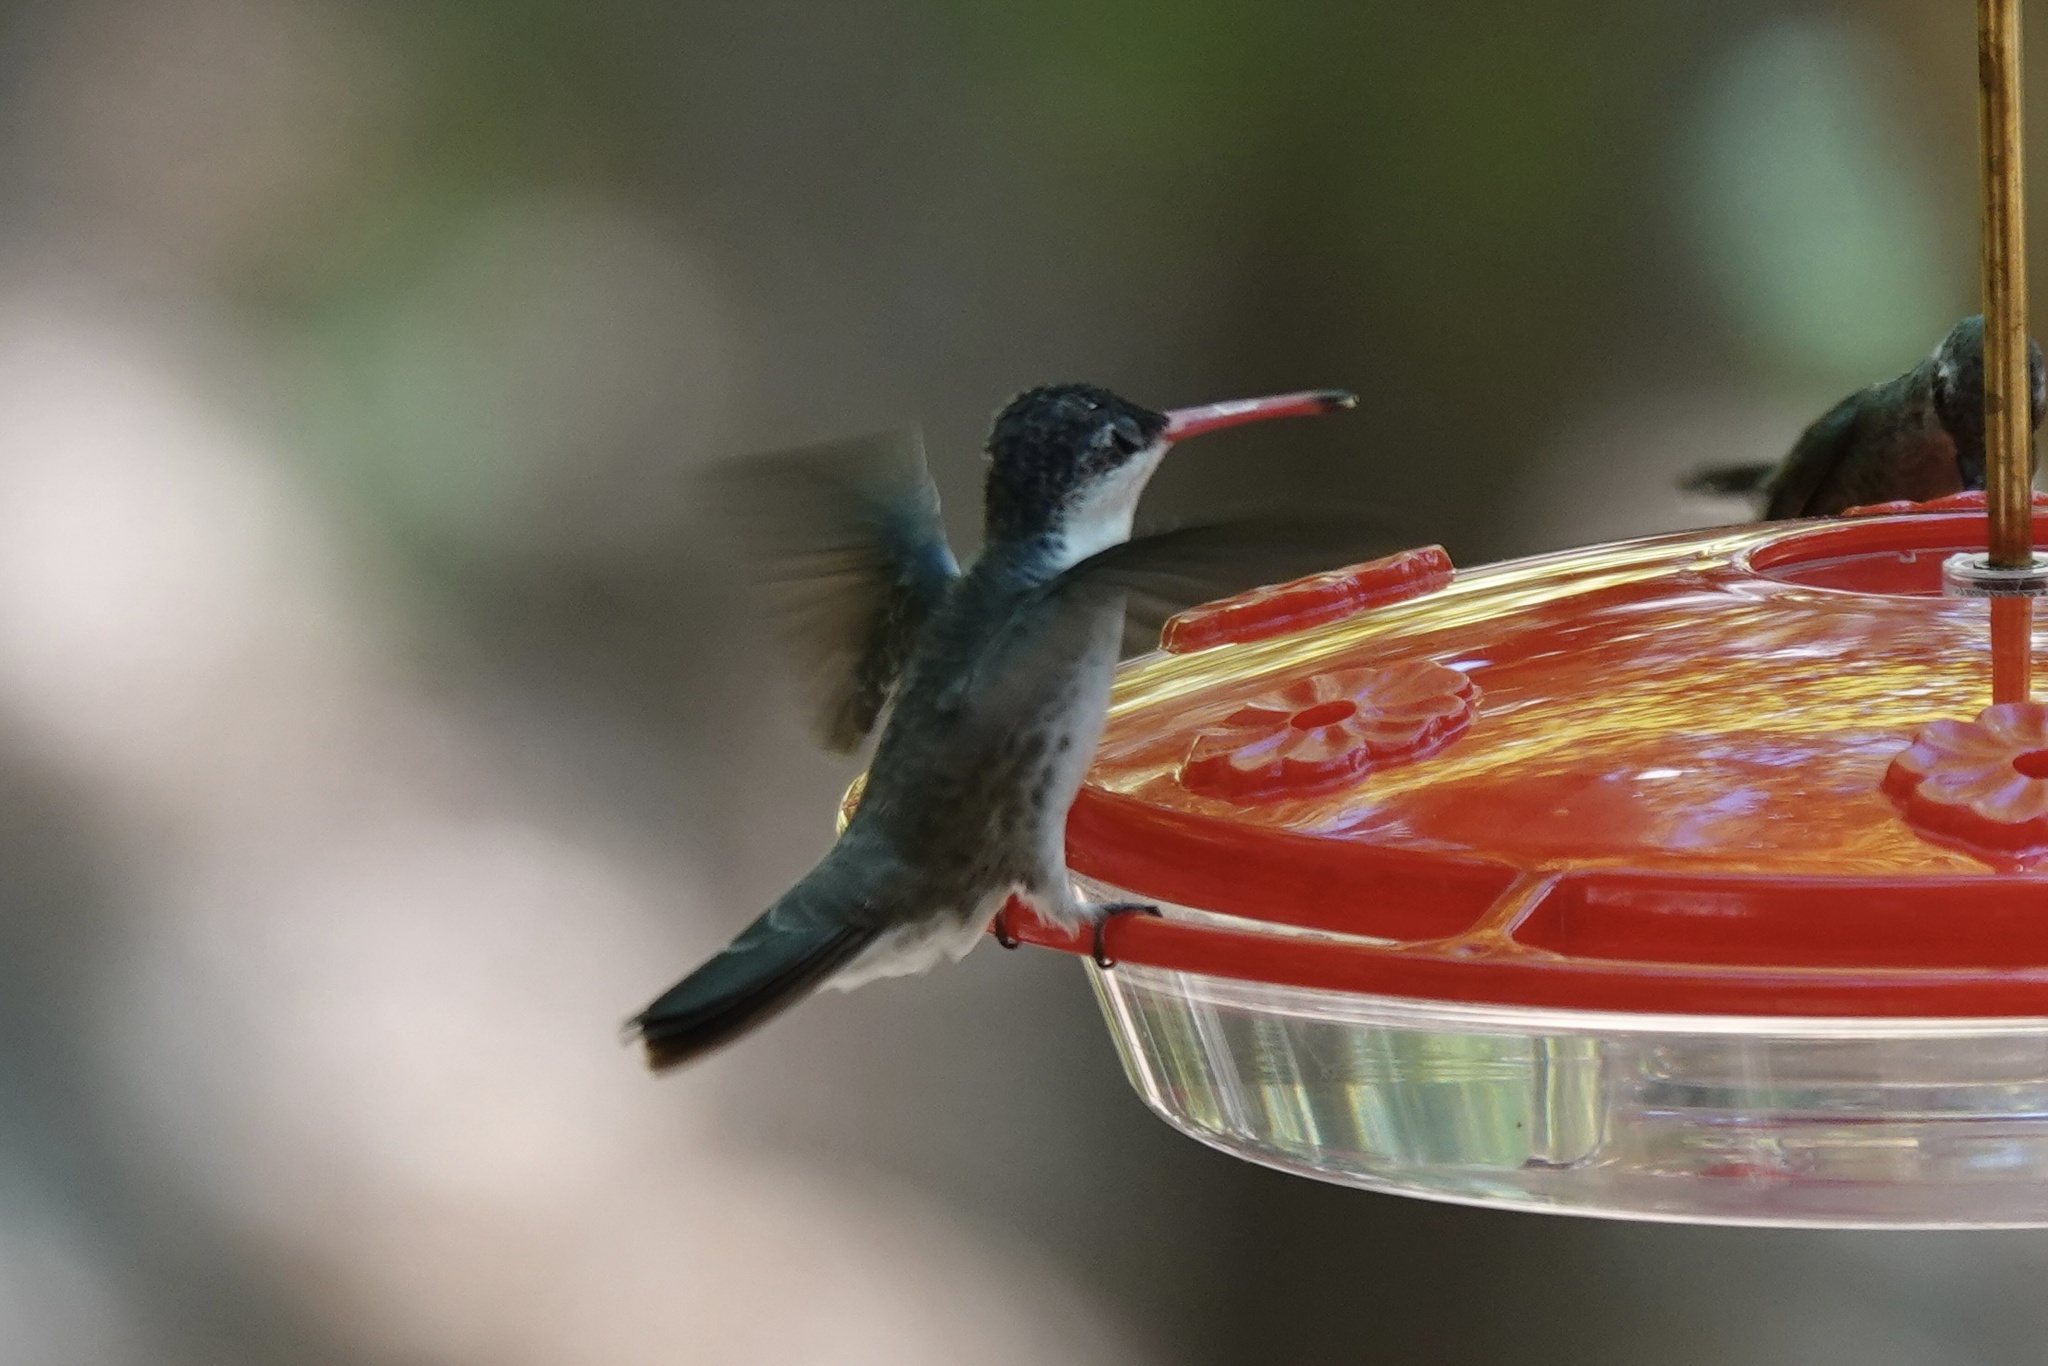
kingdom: Animalia
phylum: Chordata
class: Aves
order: Apodiformes
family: Trochilidae
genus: Leucolia
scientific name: Leucolia violiceps
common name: Violet-crowned hummingbird
